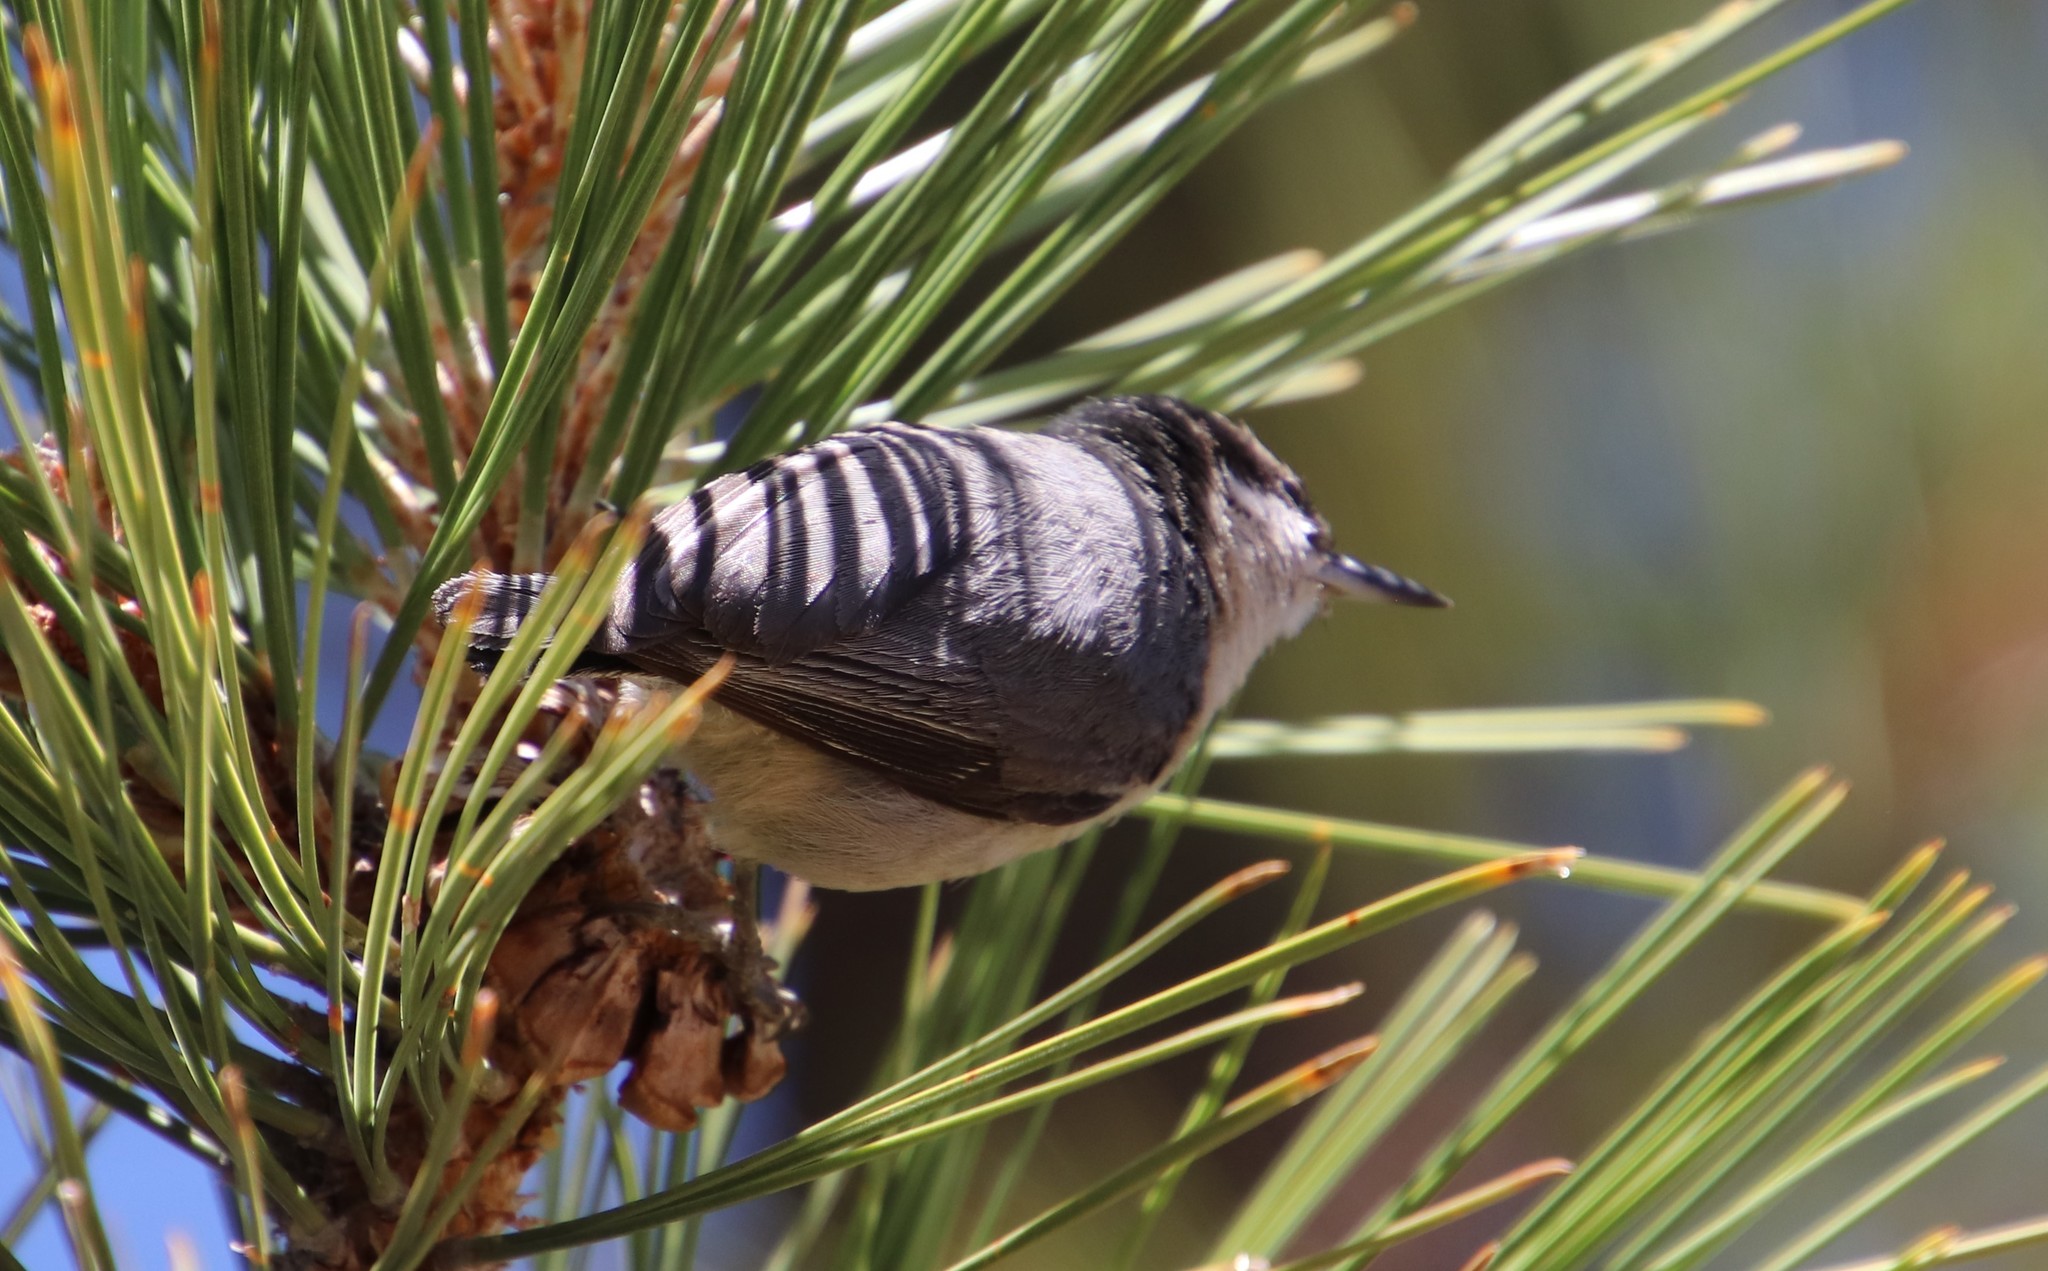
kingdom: Animalia
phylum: Chordata
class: Aves
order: Passeriformes
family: Sittidae
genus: Sitta
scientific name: Sitta pygmaea
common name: Pygmy nuthatch
